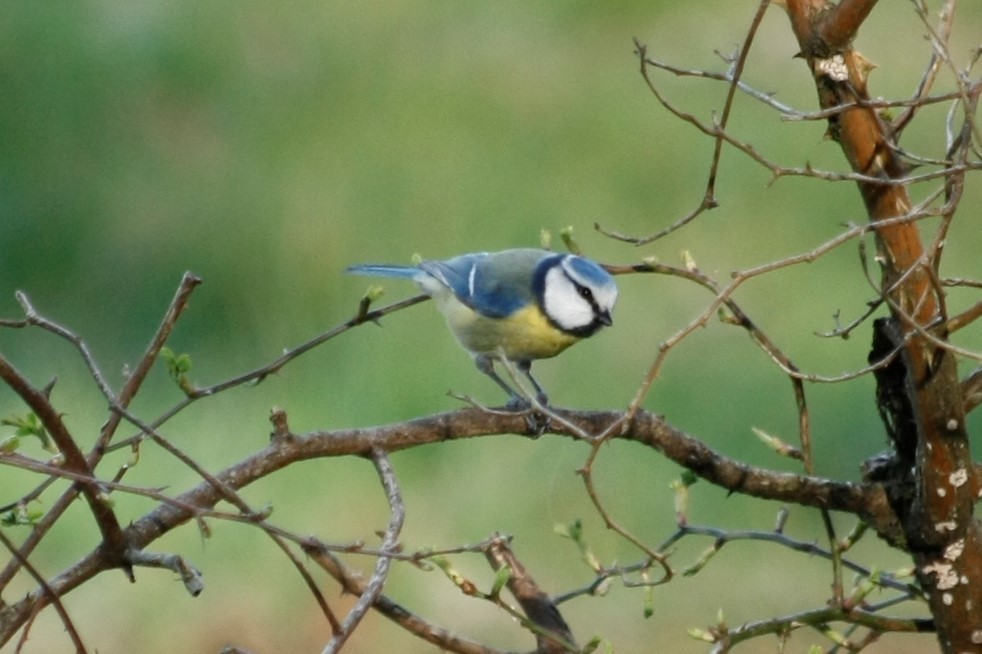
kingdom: Animalia
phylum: Chordata
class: Aves
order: Passeriformes
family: Paridae
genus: Cyanistes
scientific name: Cyanistes caeruleus
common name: Eurasian blue tit
